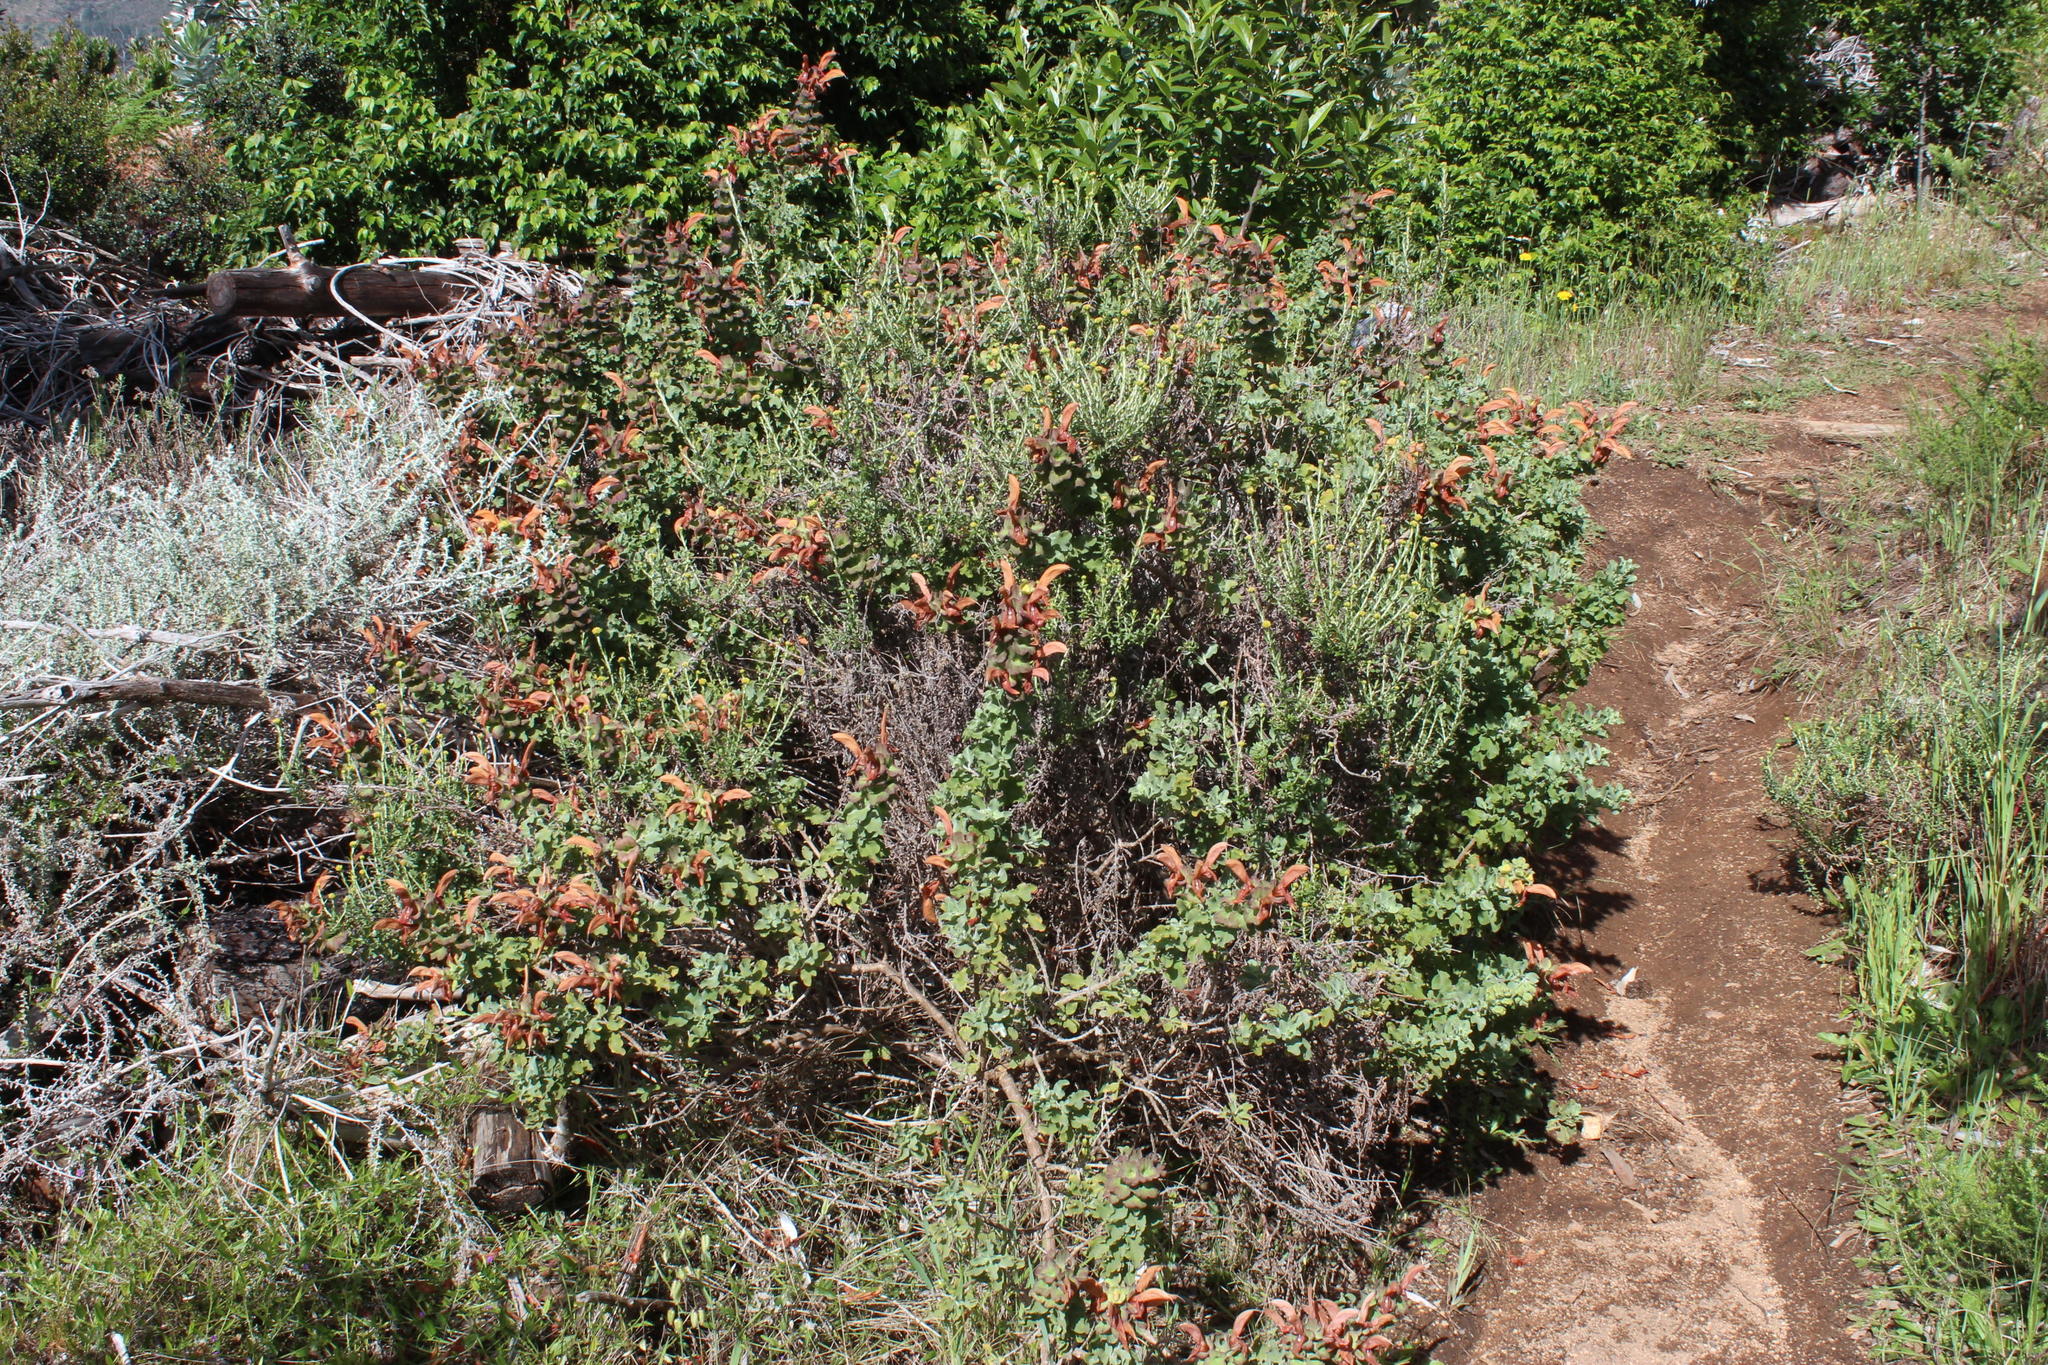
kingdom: Plantae
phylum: Tracheophyta
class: Magnoliopsida
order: Lamiales
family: Lamiaceae
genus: Salvia
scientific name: Salvia aurea
